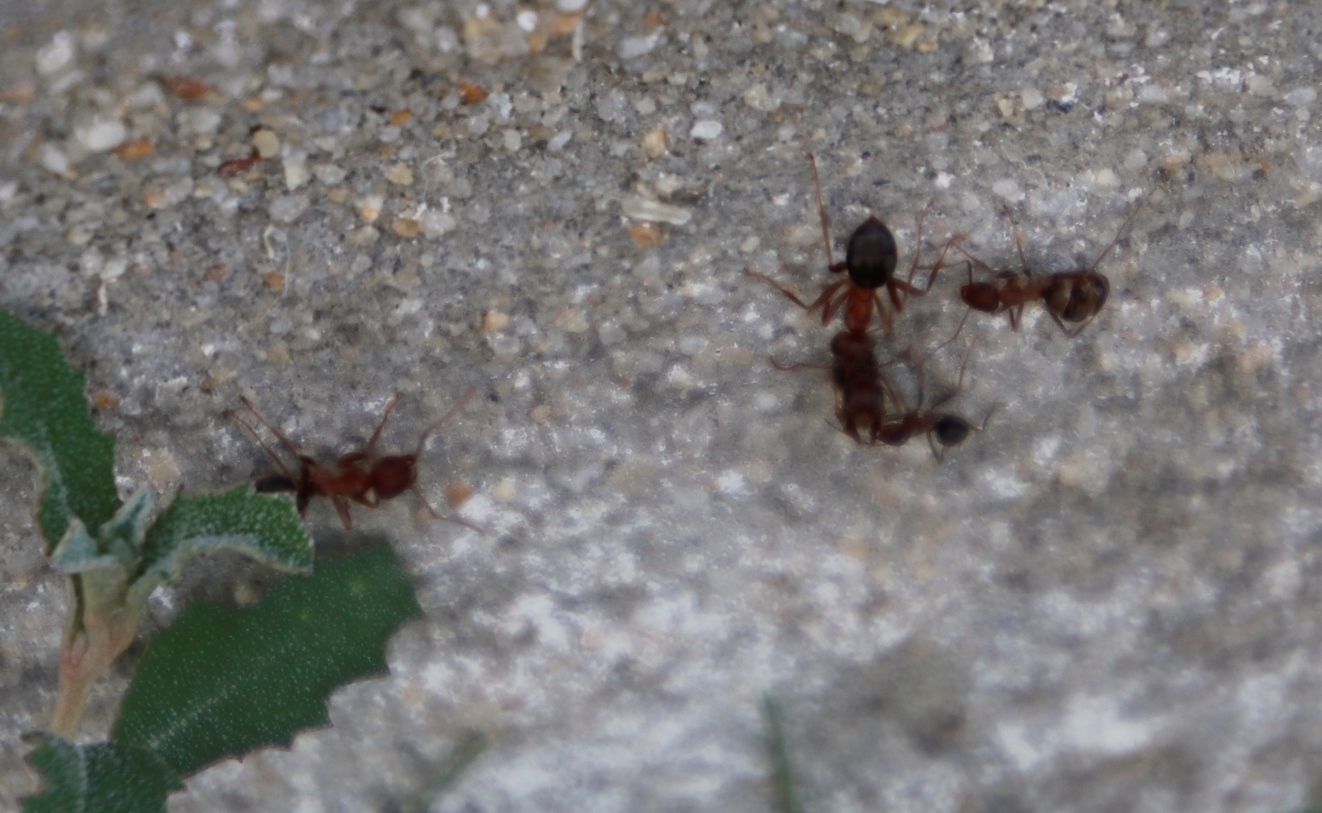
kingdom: Animalia
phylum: Arthropoda
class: Insecta
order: Hymenoptera
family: Formicidae
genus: Anoplolepis
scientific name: Anoplolepis steingroeveri
